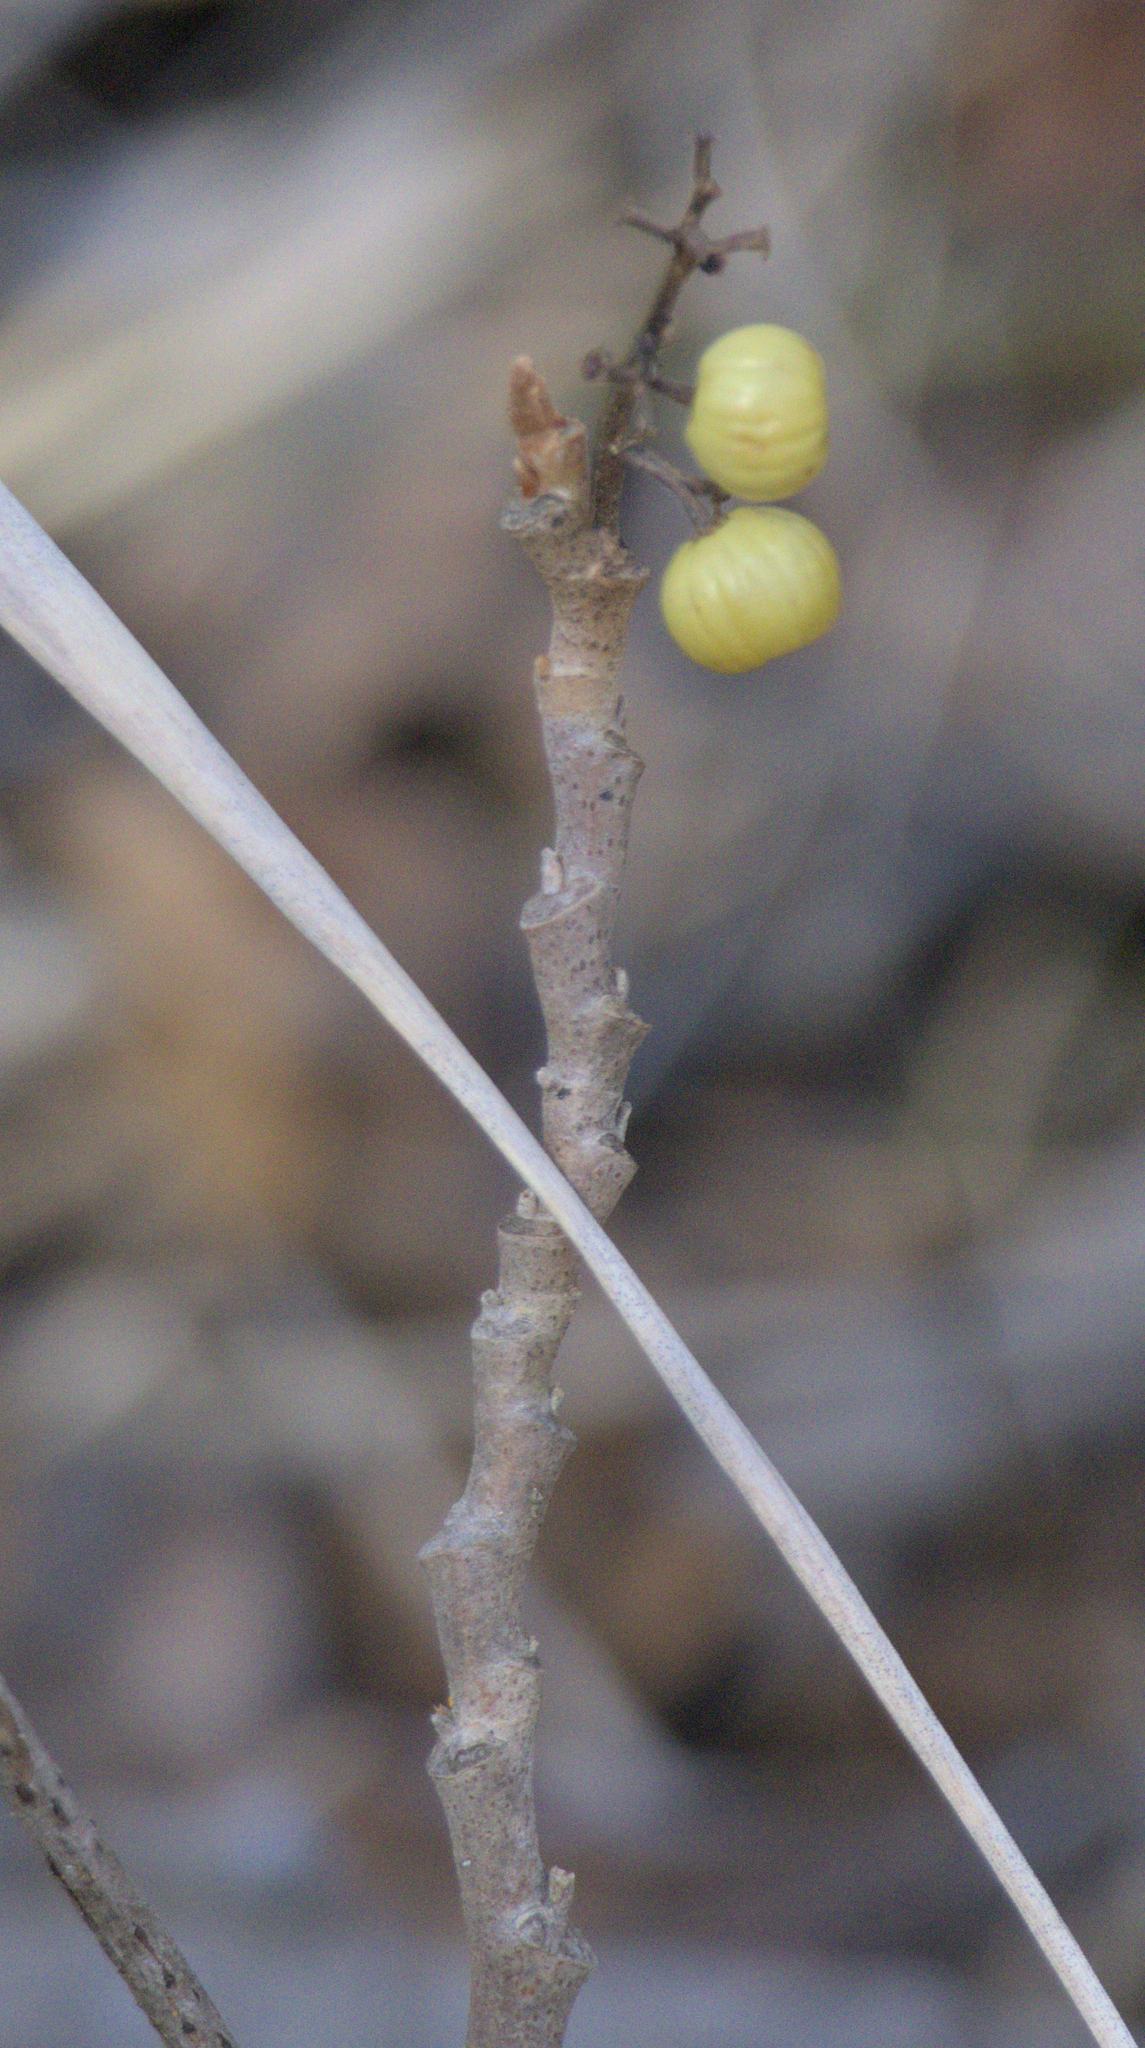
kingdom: Plantae
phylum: Tracheophyta
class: Magnoliopsida
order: Sapindales
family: Anacardiaceae
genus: Toxicodendron
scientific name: Toxicodendron rydbergii
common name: Rydberg's poison-ivy
